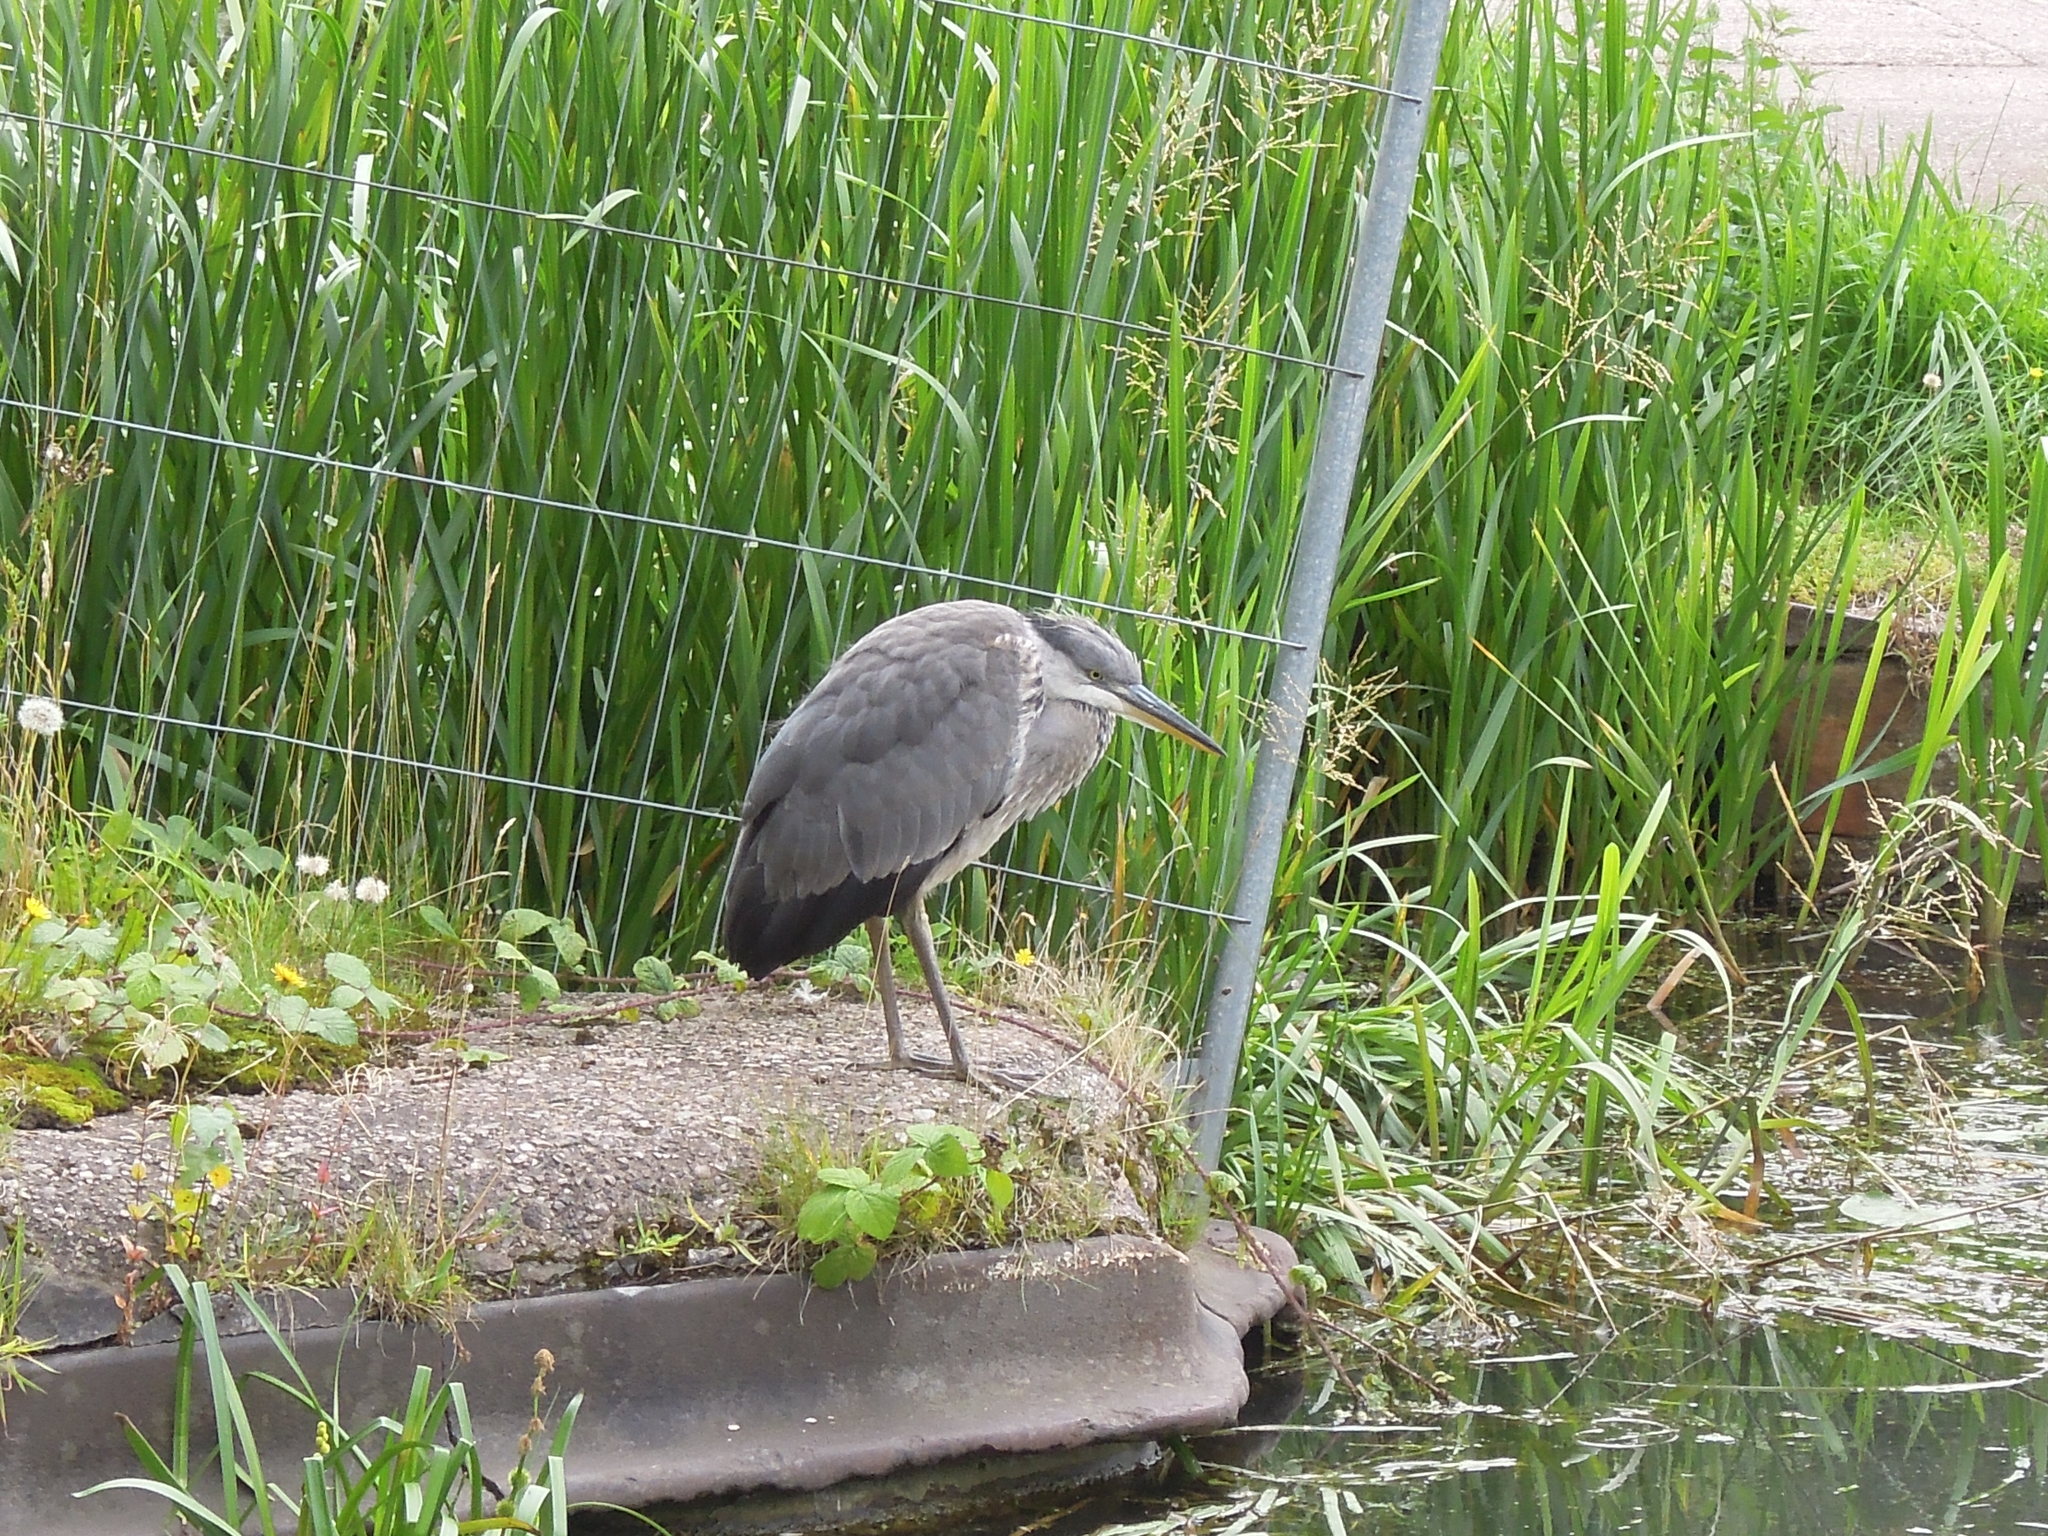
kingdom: Animalia
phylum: Chordata
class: Aves
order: Pelecaniformes
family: Ardeidae
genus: Ardea
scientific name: Ardea cinerea
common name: Grey heron
